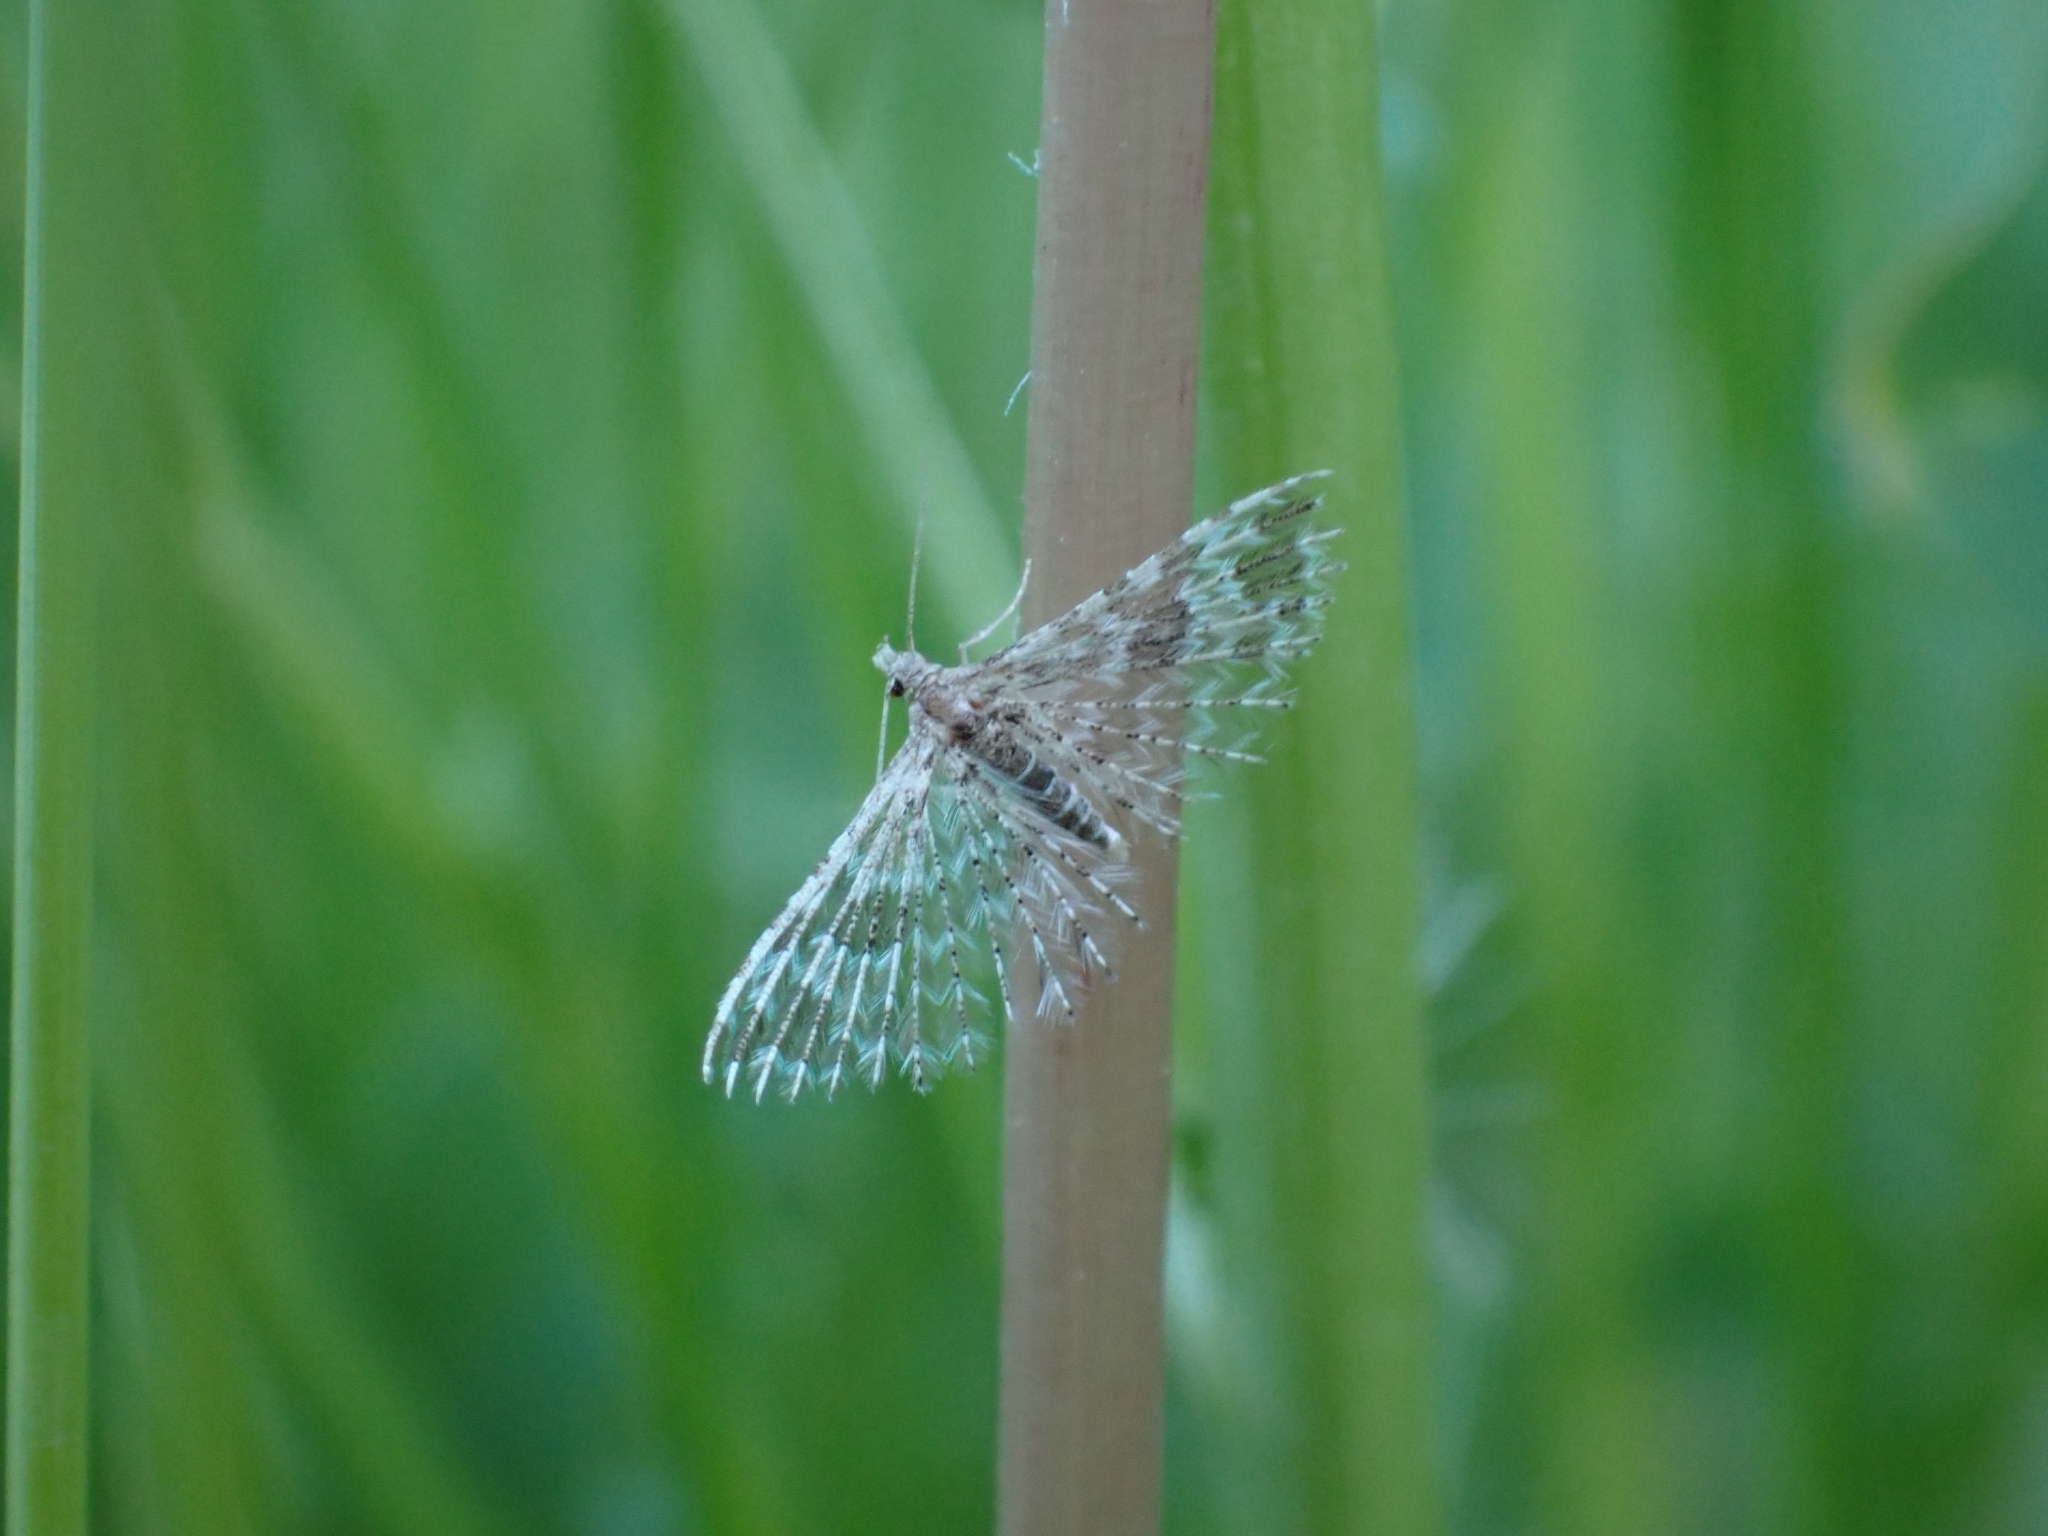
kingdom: Animalia
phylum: Arthropoda
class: Insecta
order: Lepidoptera
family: Alucitidae
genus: Alucita
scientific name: Alucita montana
